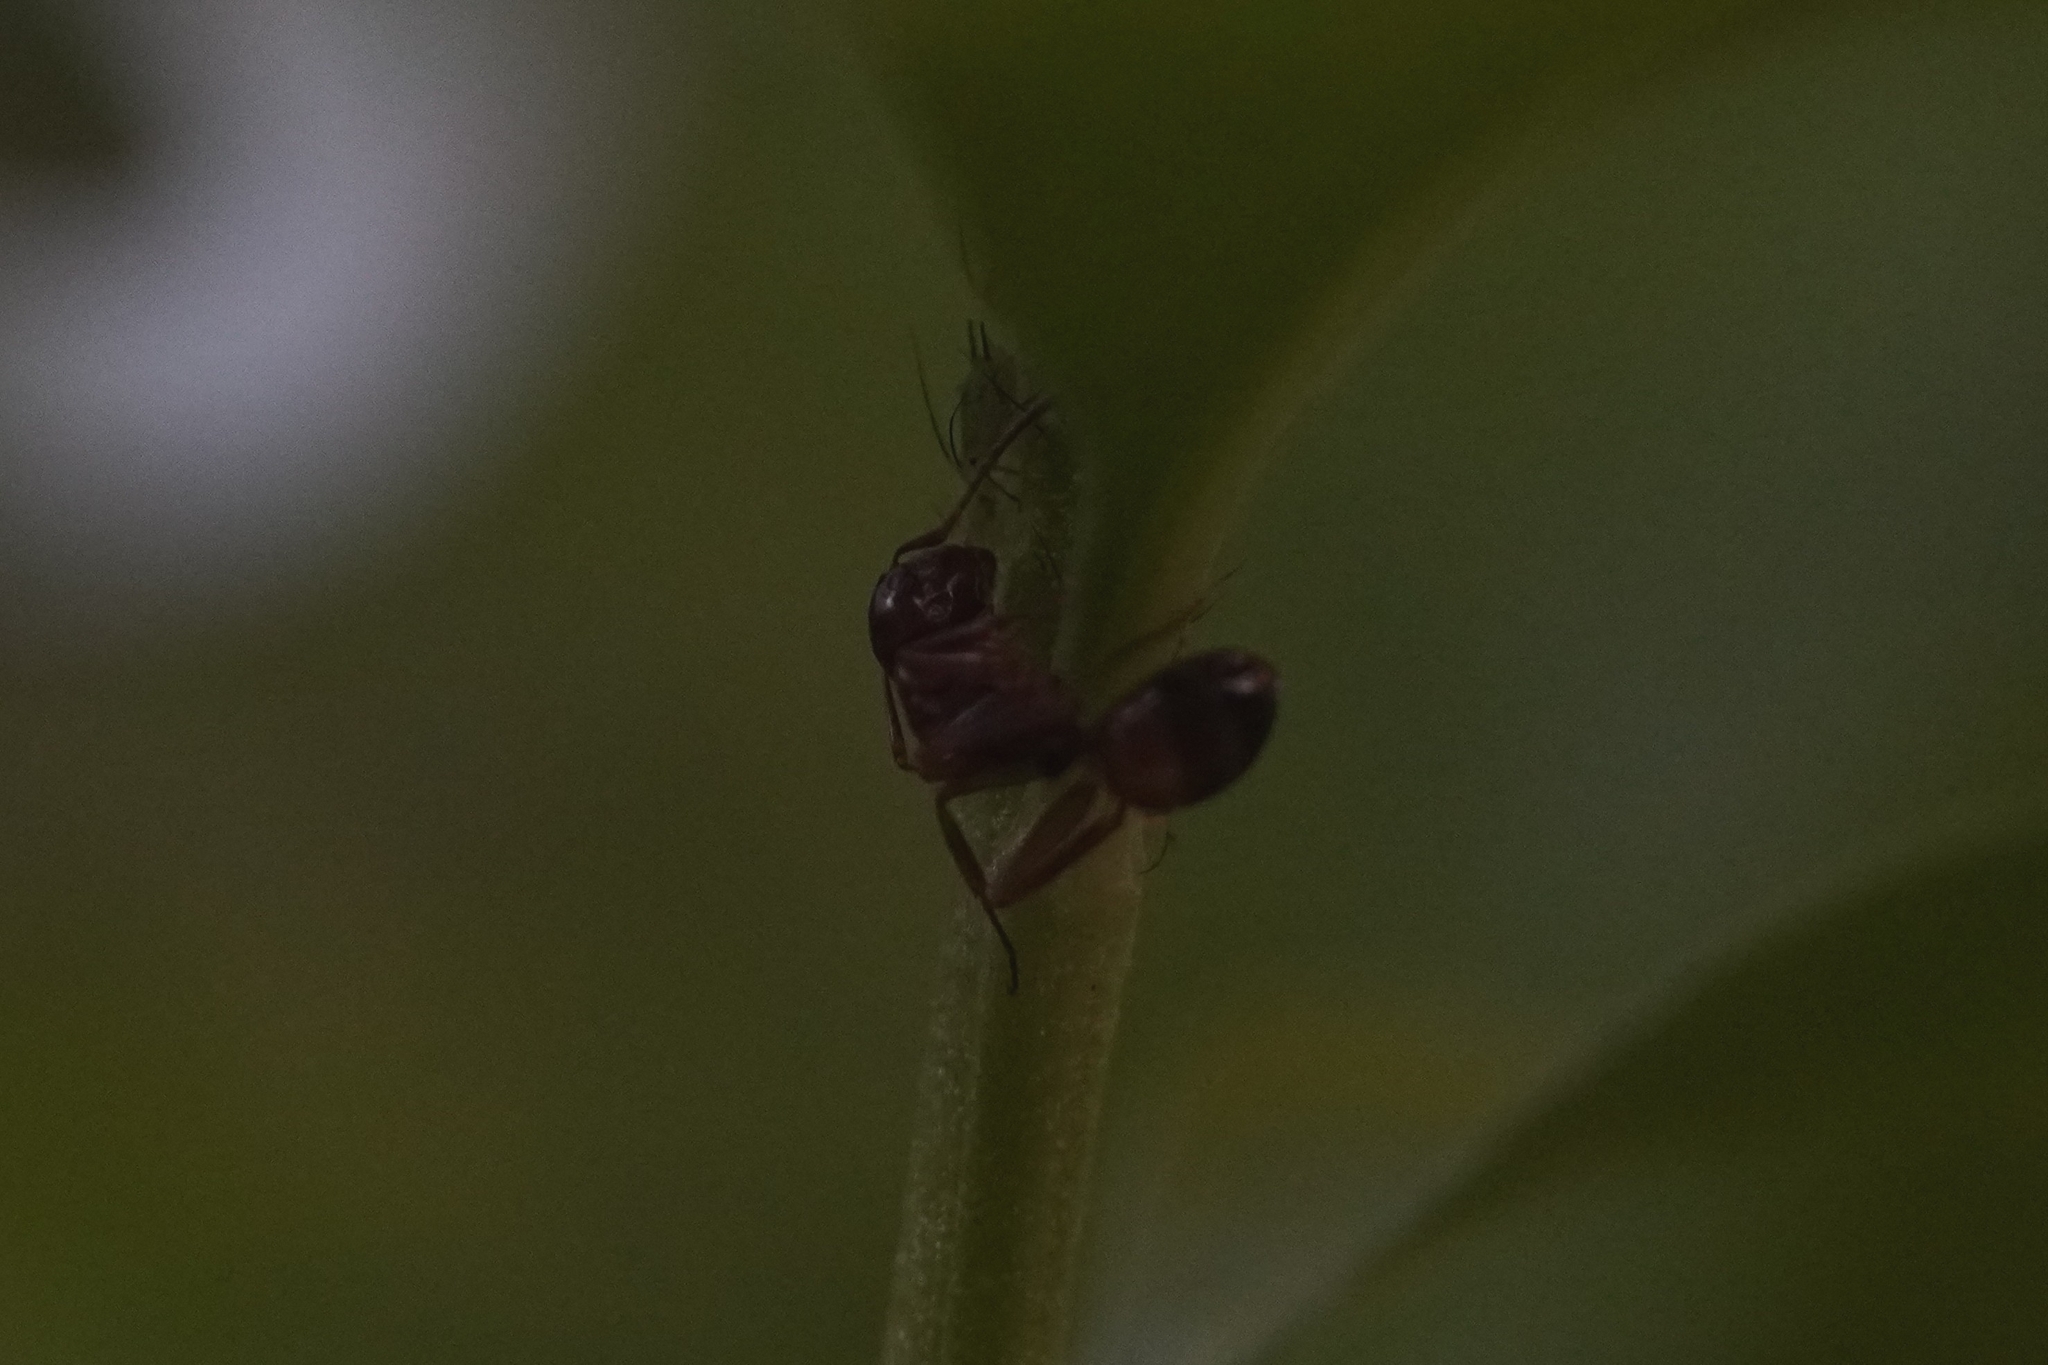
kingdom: Animalia
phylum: Arthropoda
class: Insecta
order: Hymenoptera
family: Formicidae
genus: Camponotus
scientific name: Camponotus subbarbatus
